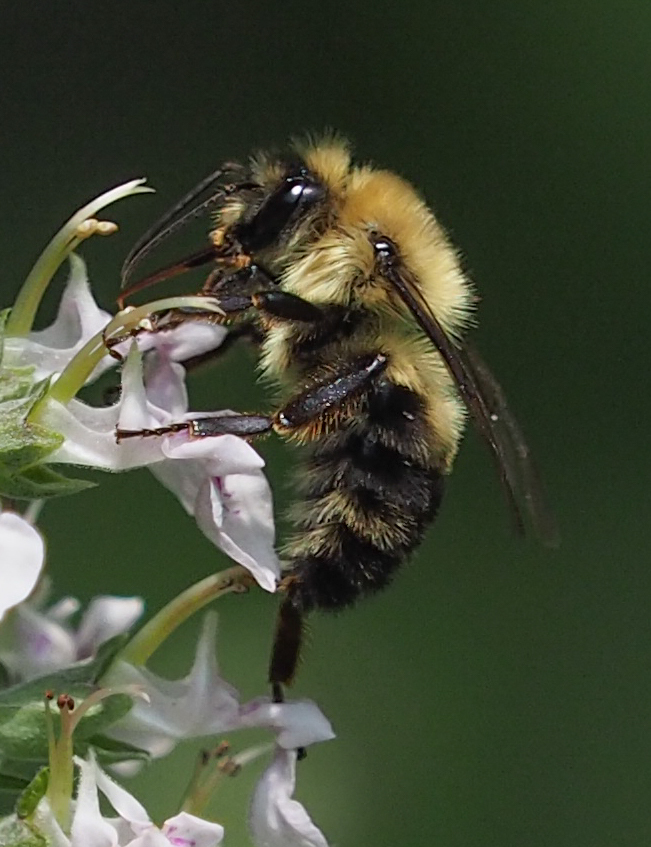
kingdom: Animalia
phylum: Arthropoda
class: Insecta
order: Hymenoptera
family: Apidae
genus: Bombus
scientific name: Bombus bimaculatus
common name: Two-spotted bumble bee
